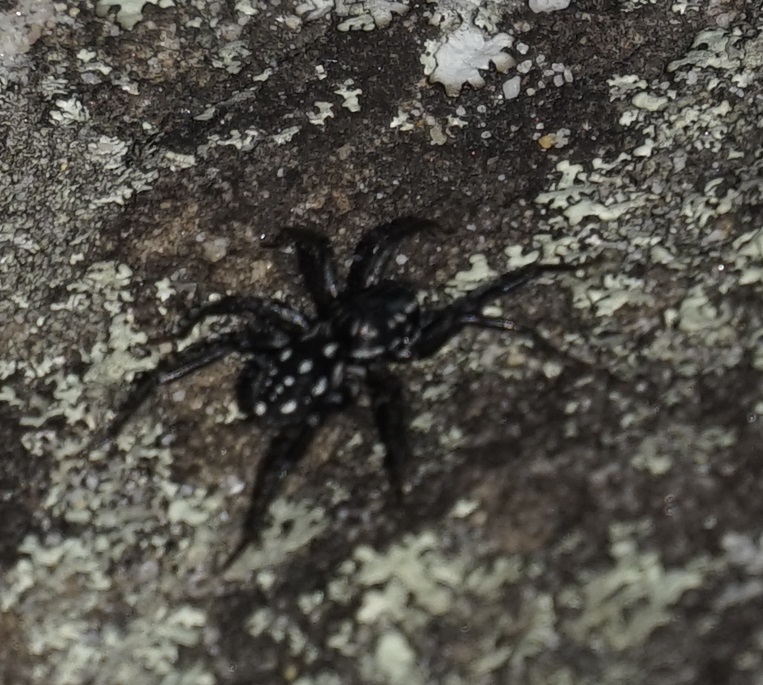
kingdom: Animalia
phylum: Arthropoda
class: Arachnida
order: Araneae
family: Corinnidae
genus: Nyssus
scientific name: Nyssus albopunctatus
